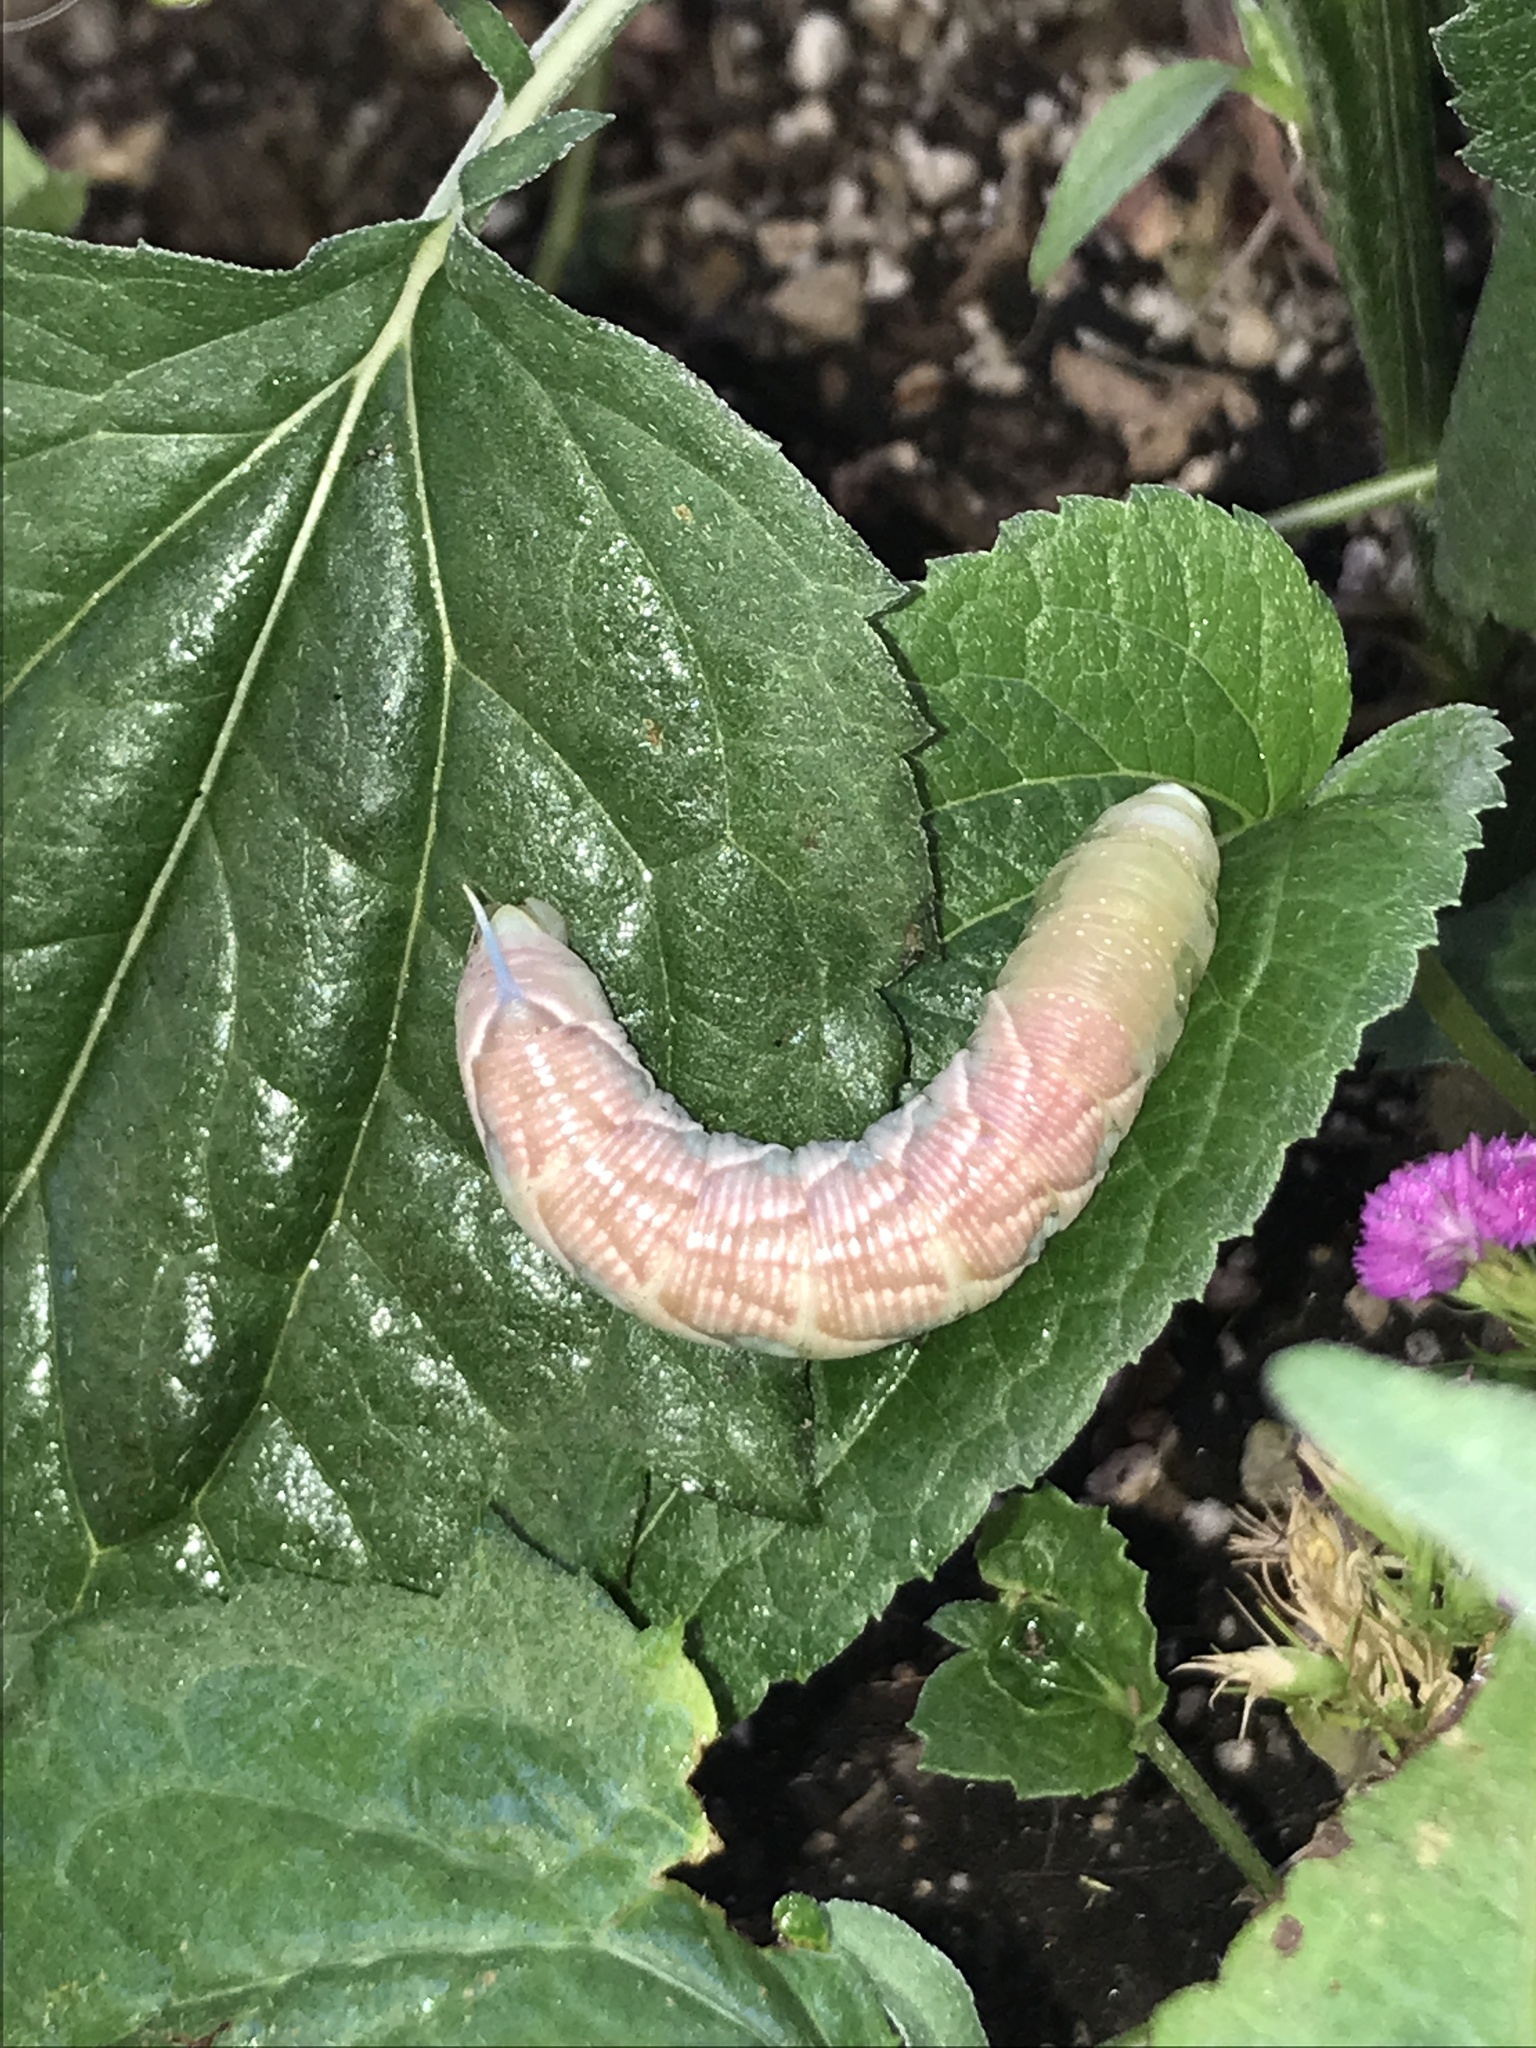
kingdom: Animalia
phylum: Arthropoda
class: Insecta
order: Lepidoptera
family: Sphingidae
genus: Sphinx
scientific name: Sphinx chersis
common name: Great ash sphinx
